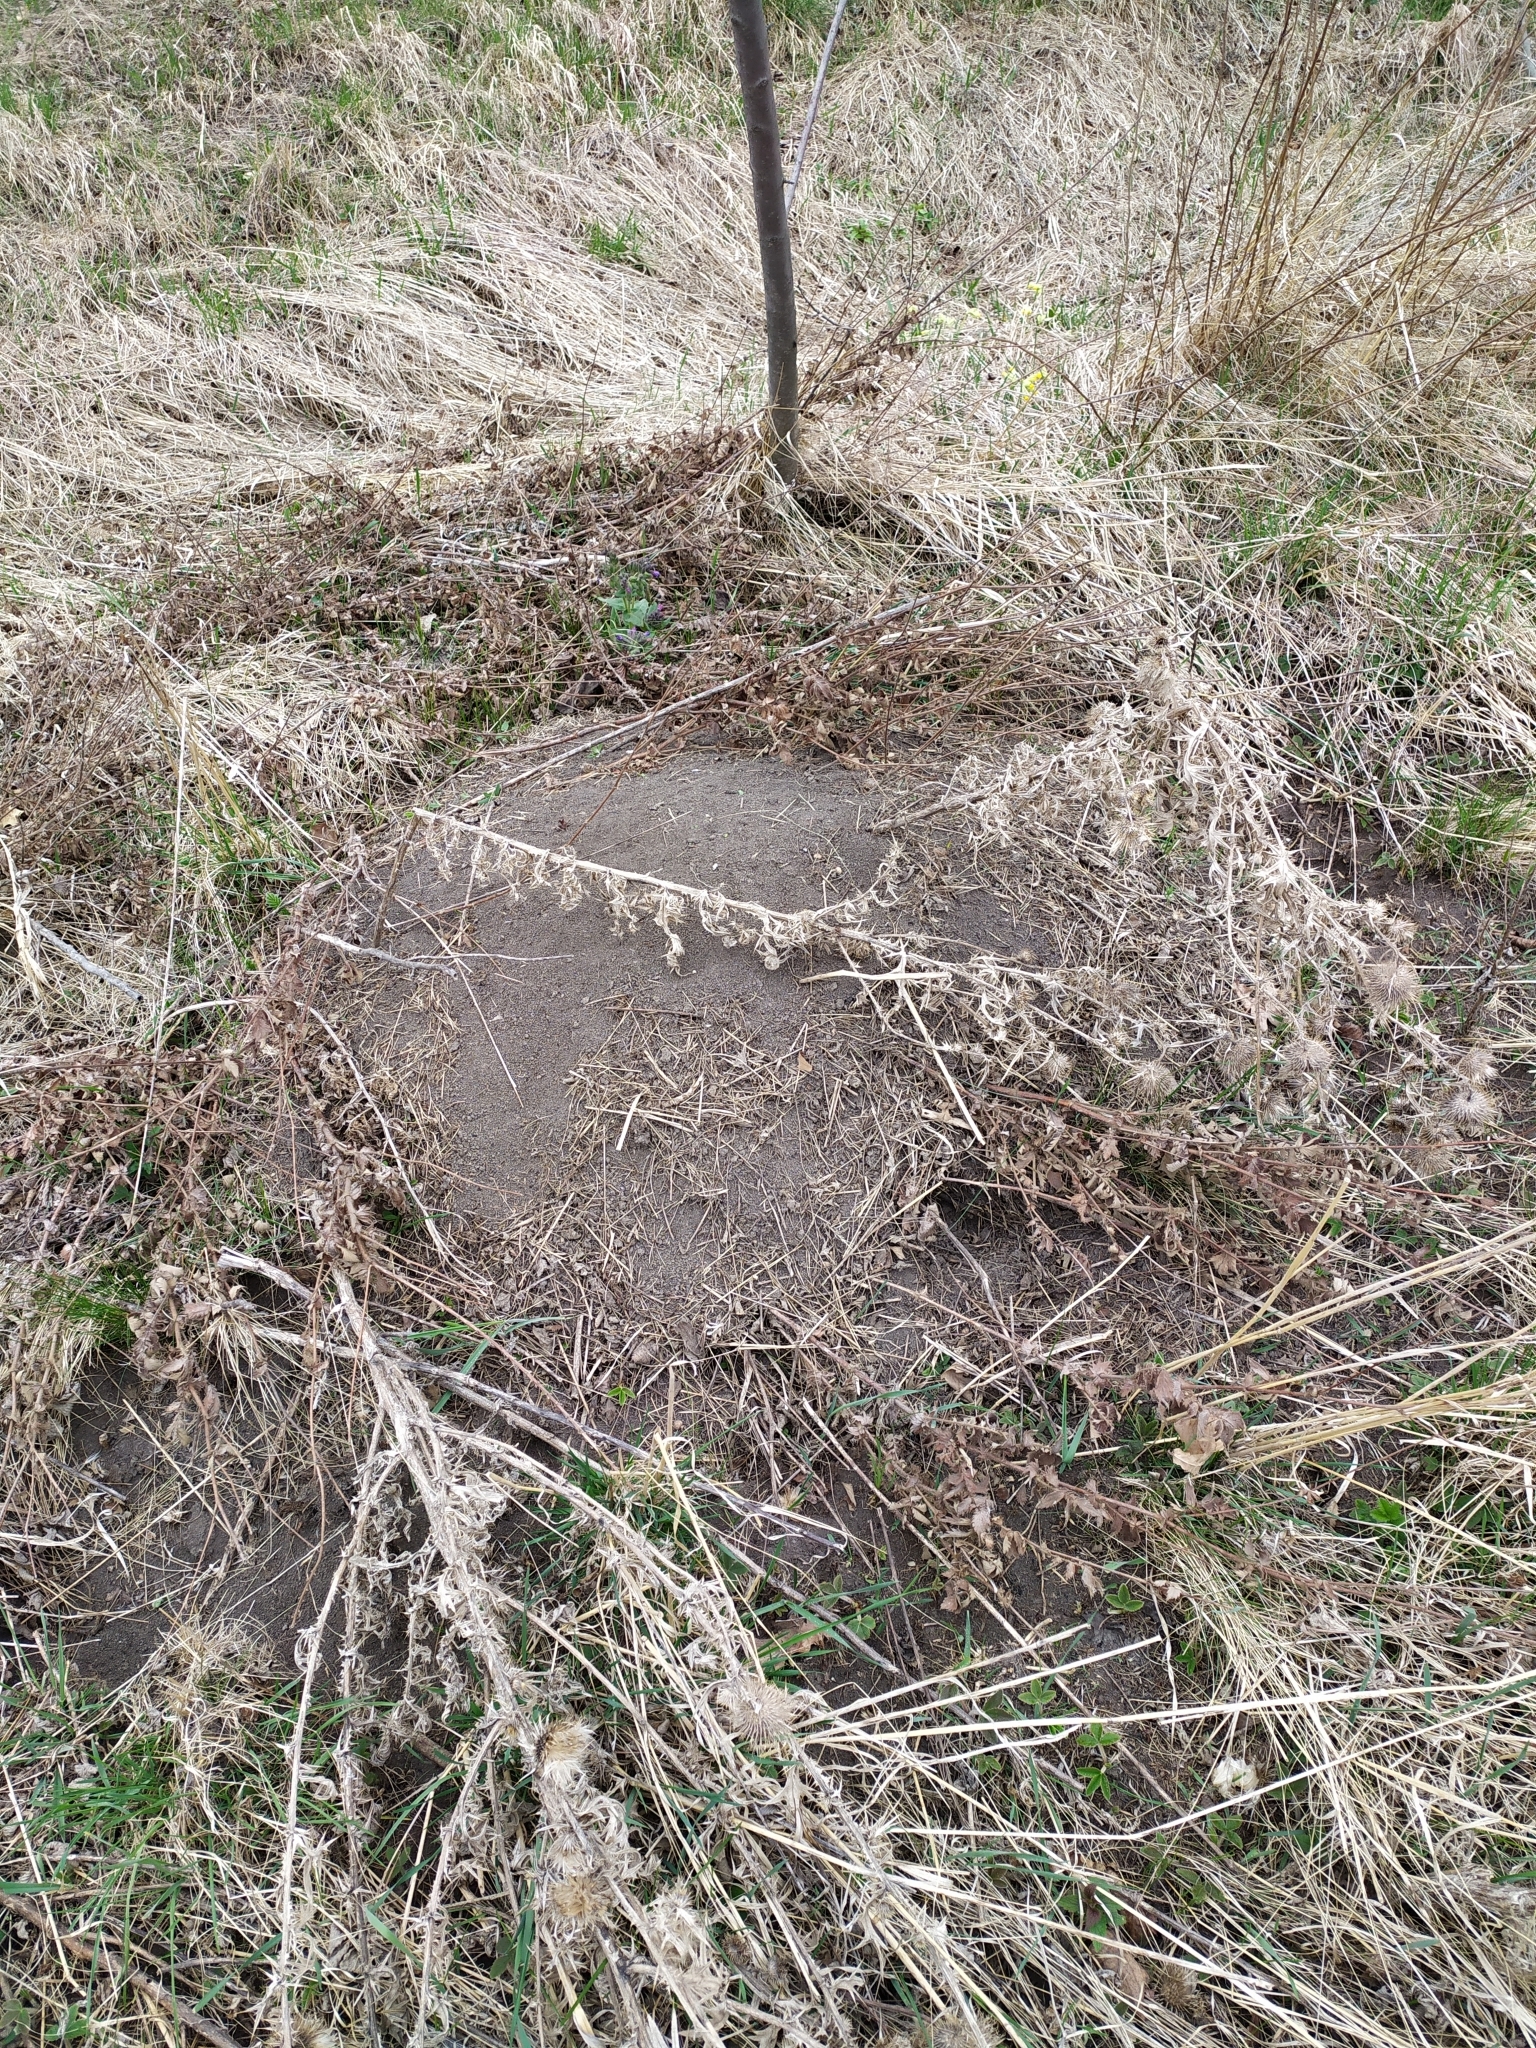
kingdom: Animalia
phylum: Chordata
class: Mammalia
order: Rodentia
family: Muridae
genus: Mus
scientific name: Mus spicilegus
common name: Mound-building mouse
